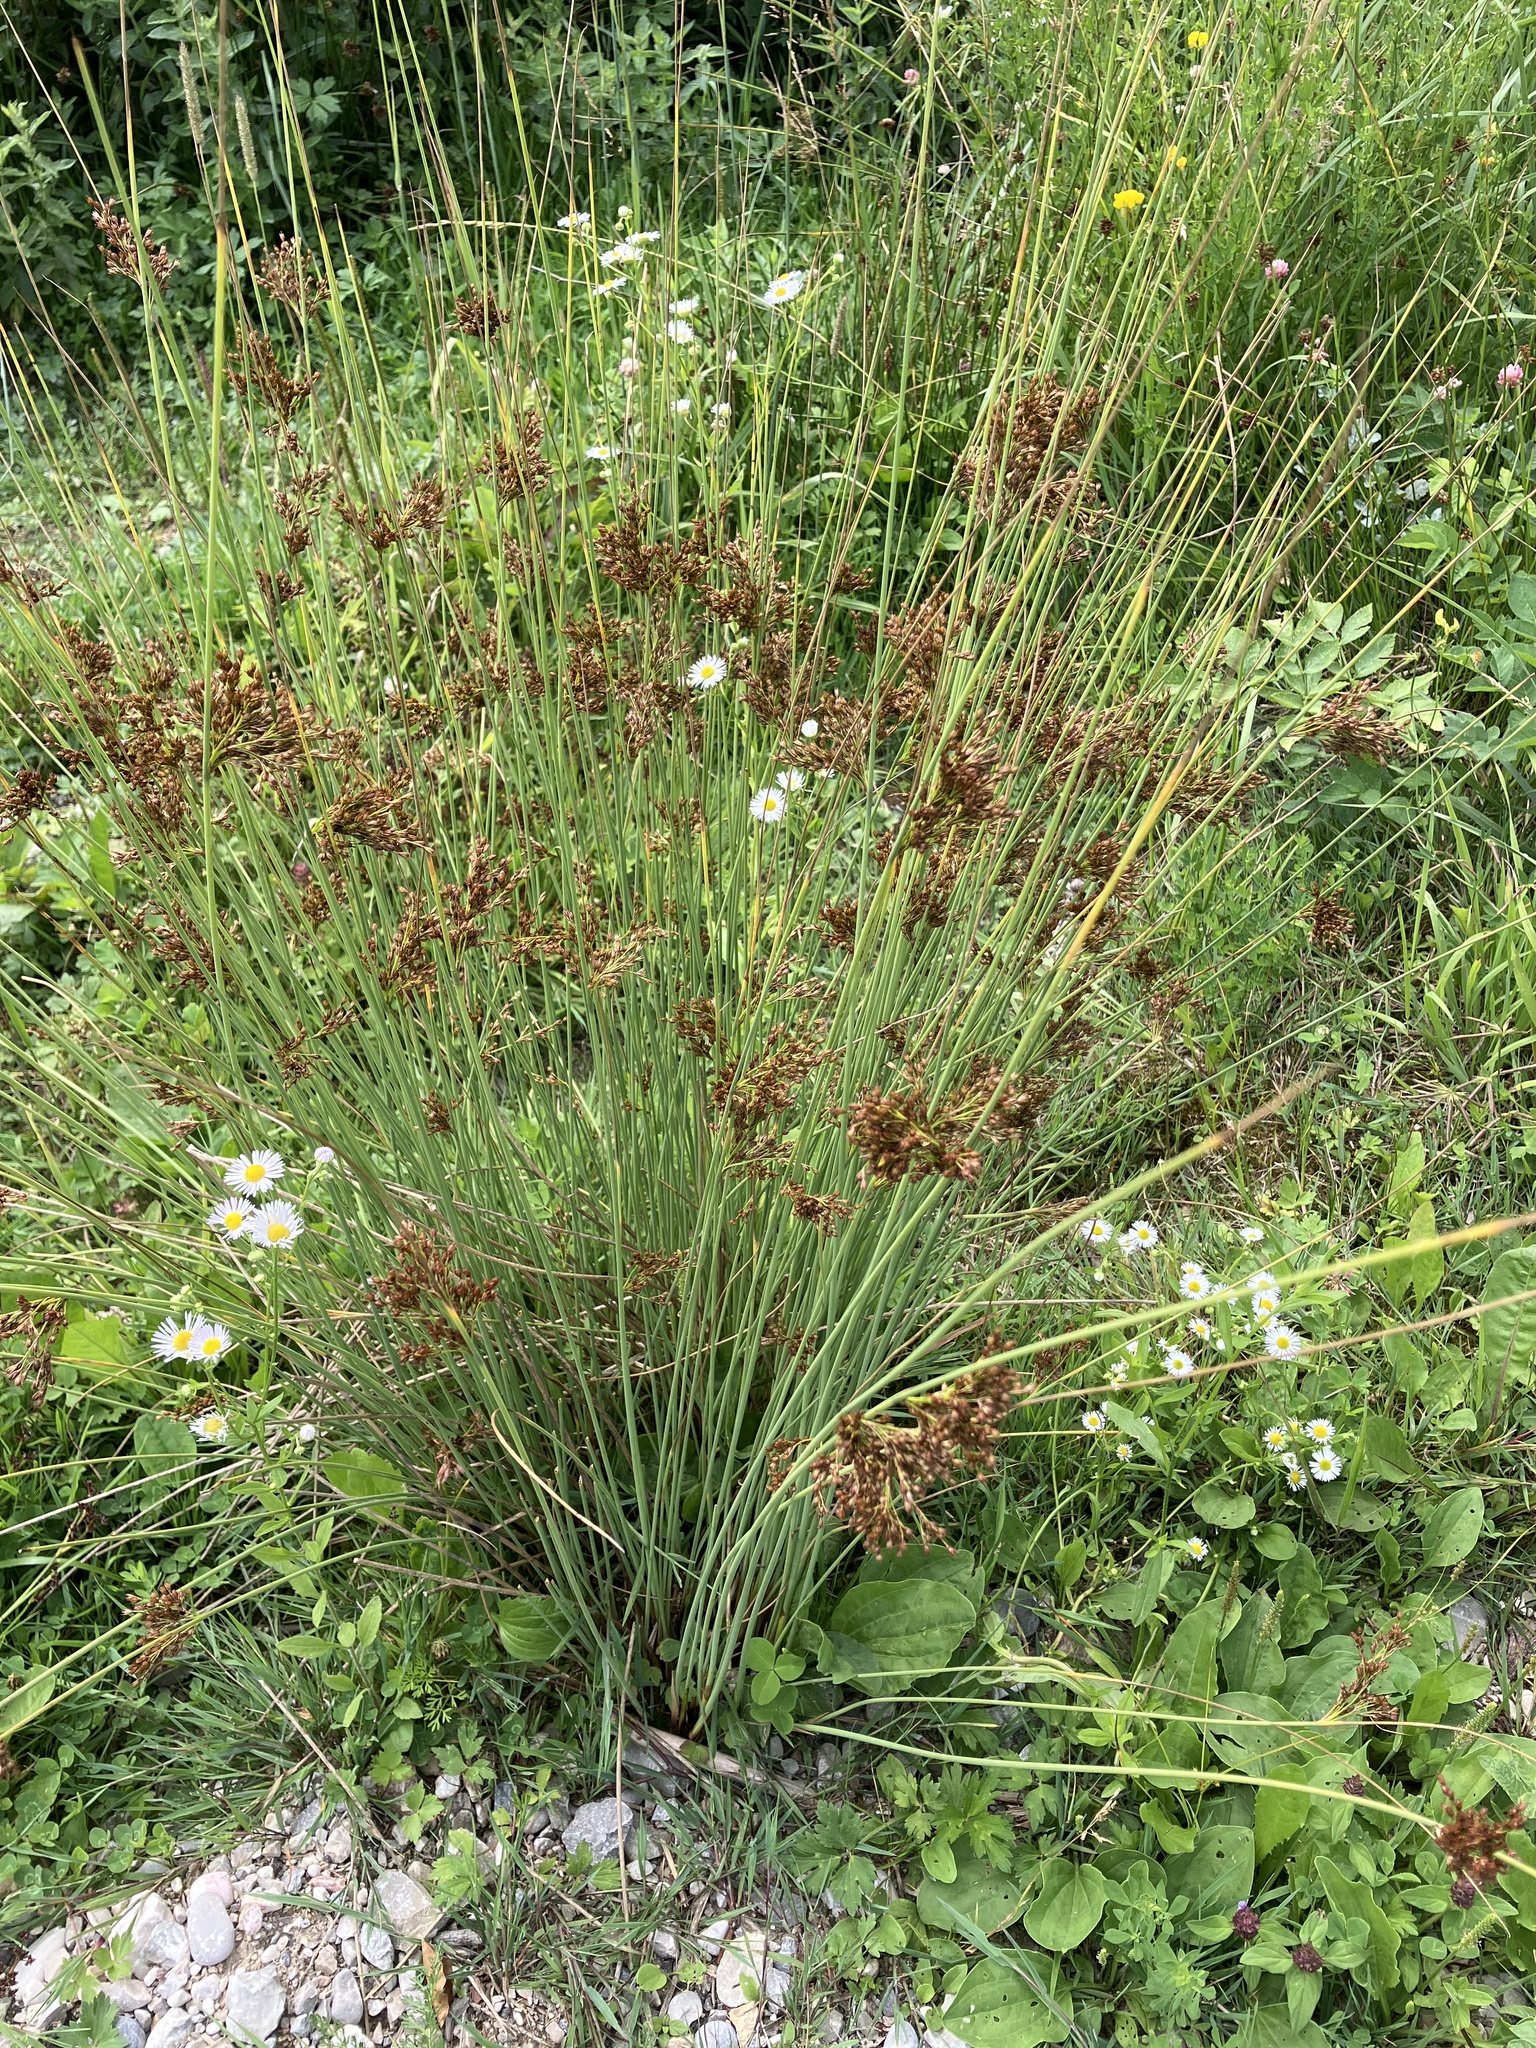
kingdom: Plantae
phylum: Tracheophyta
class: Liliopsida
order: Poales
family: Juncaceae
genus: Juncus
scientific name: Juncus inflexus
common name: Hard rush
